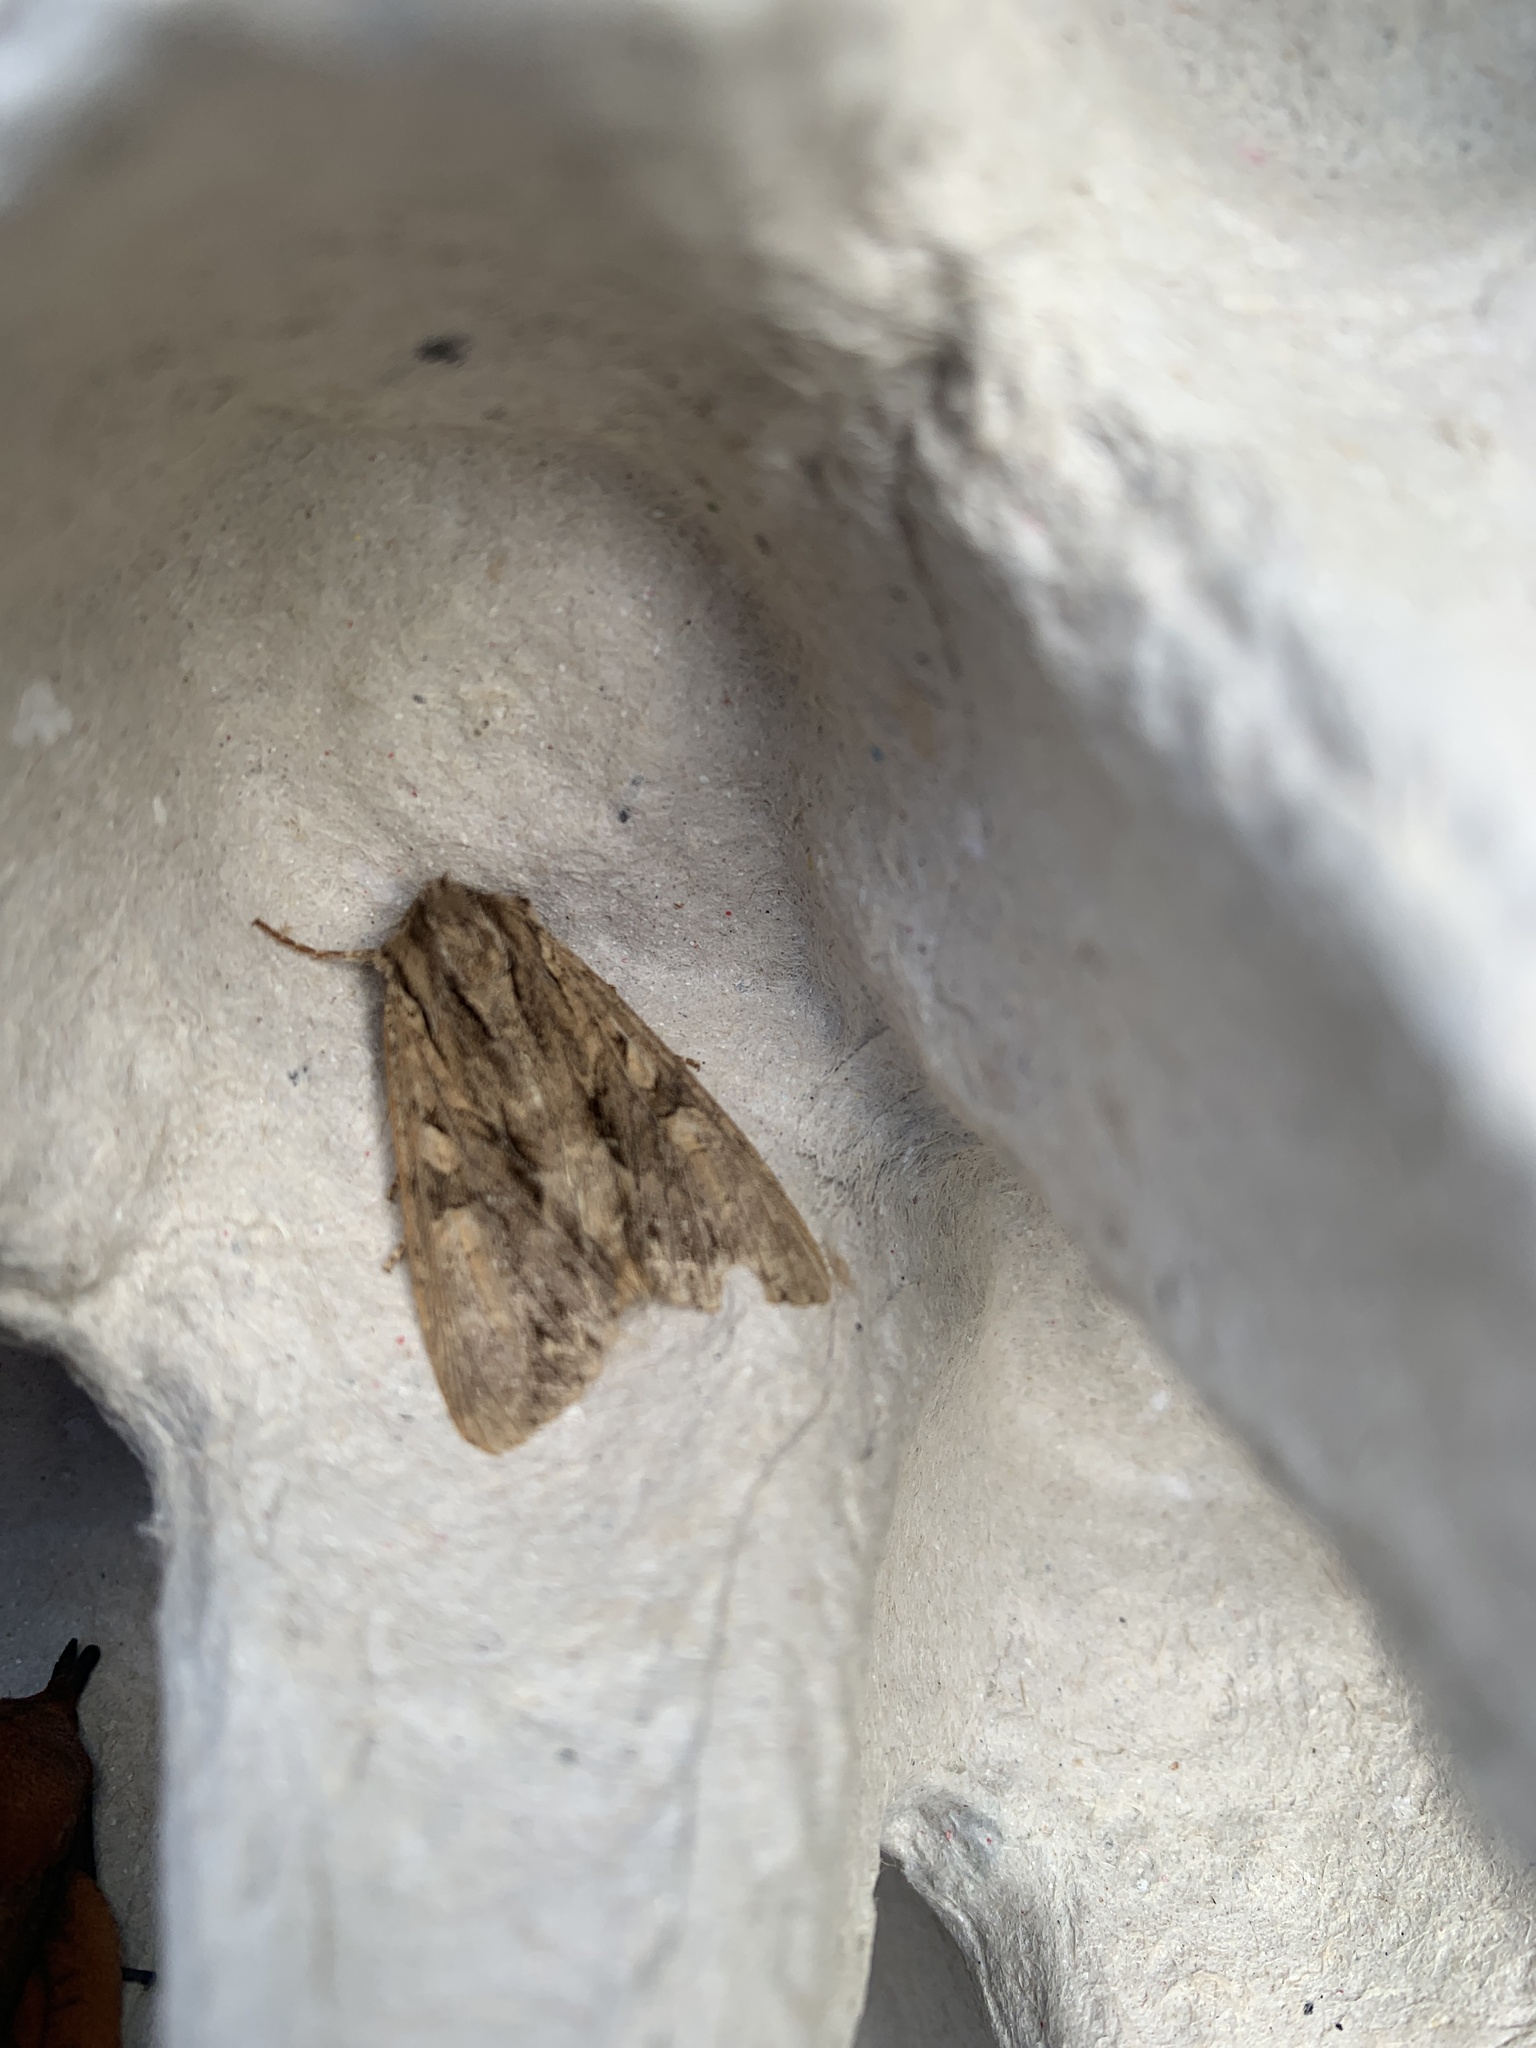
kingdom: Animalia
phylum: Arthropoda
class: Insecta
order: Lepidoptera
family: Noctuidae
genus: Apamea
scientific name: Apamea monoglypha
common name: Dark arches
